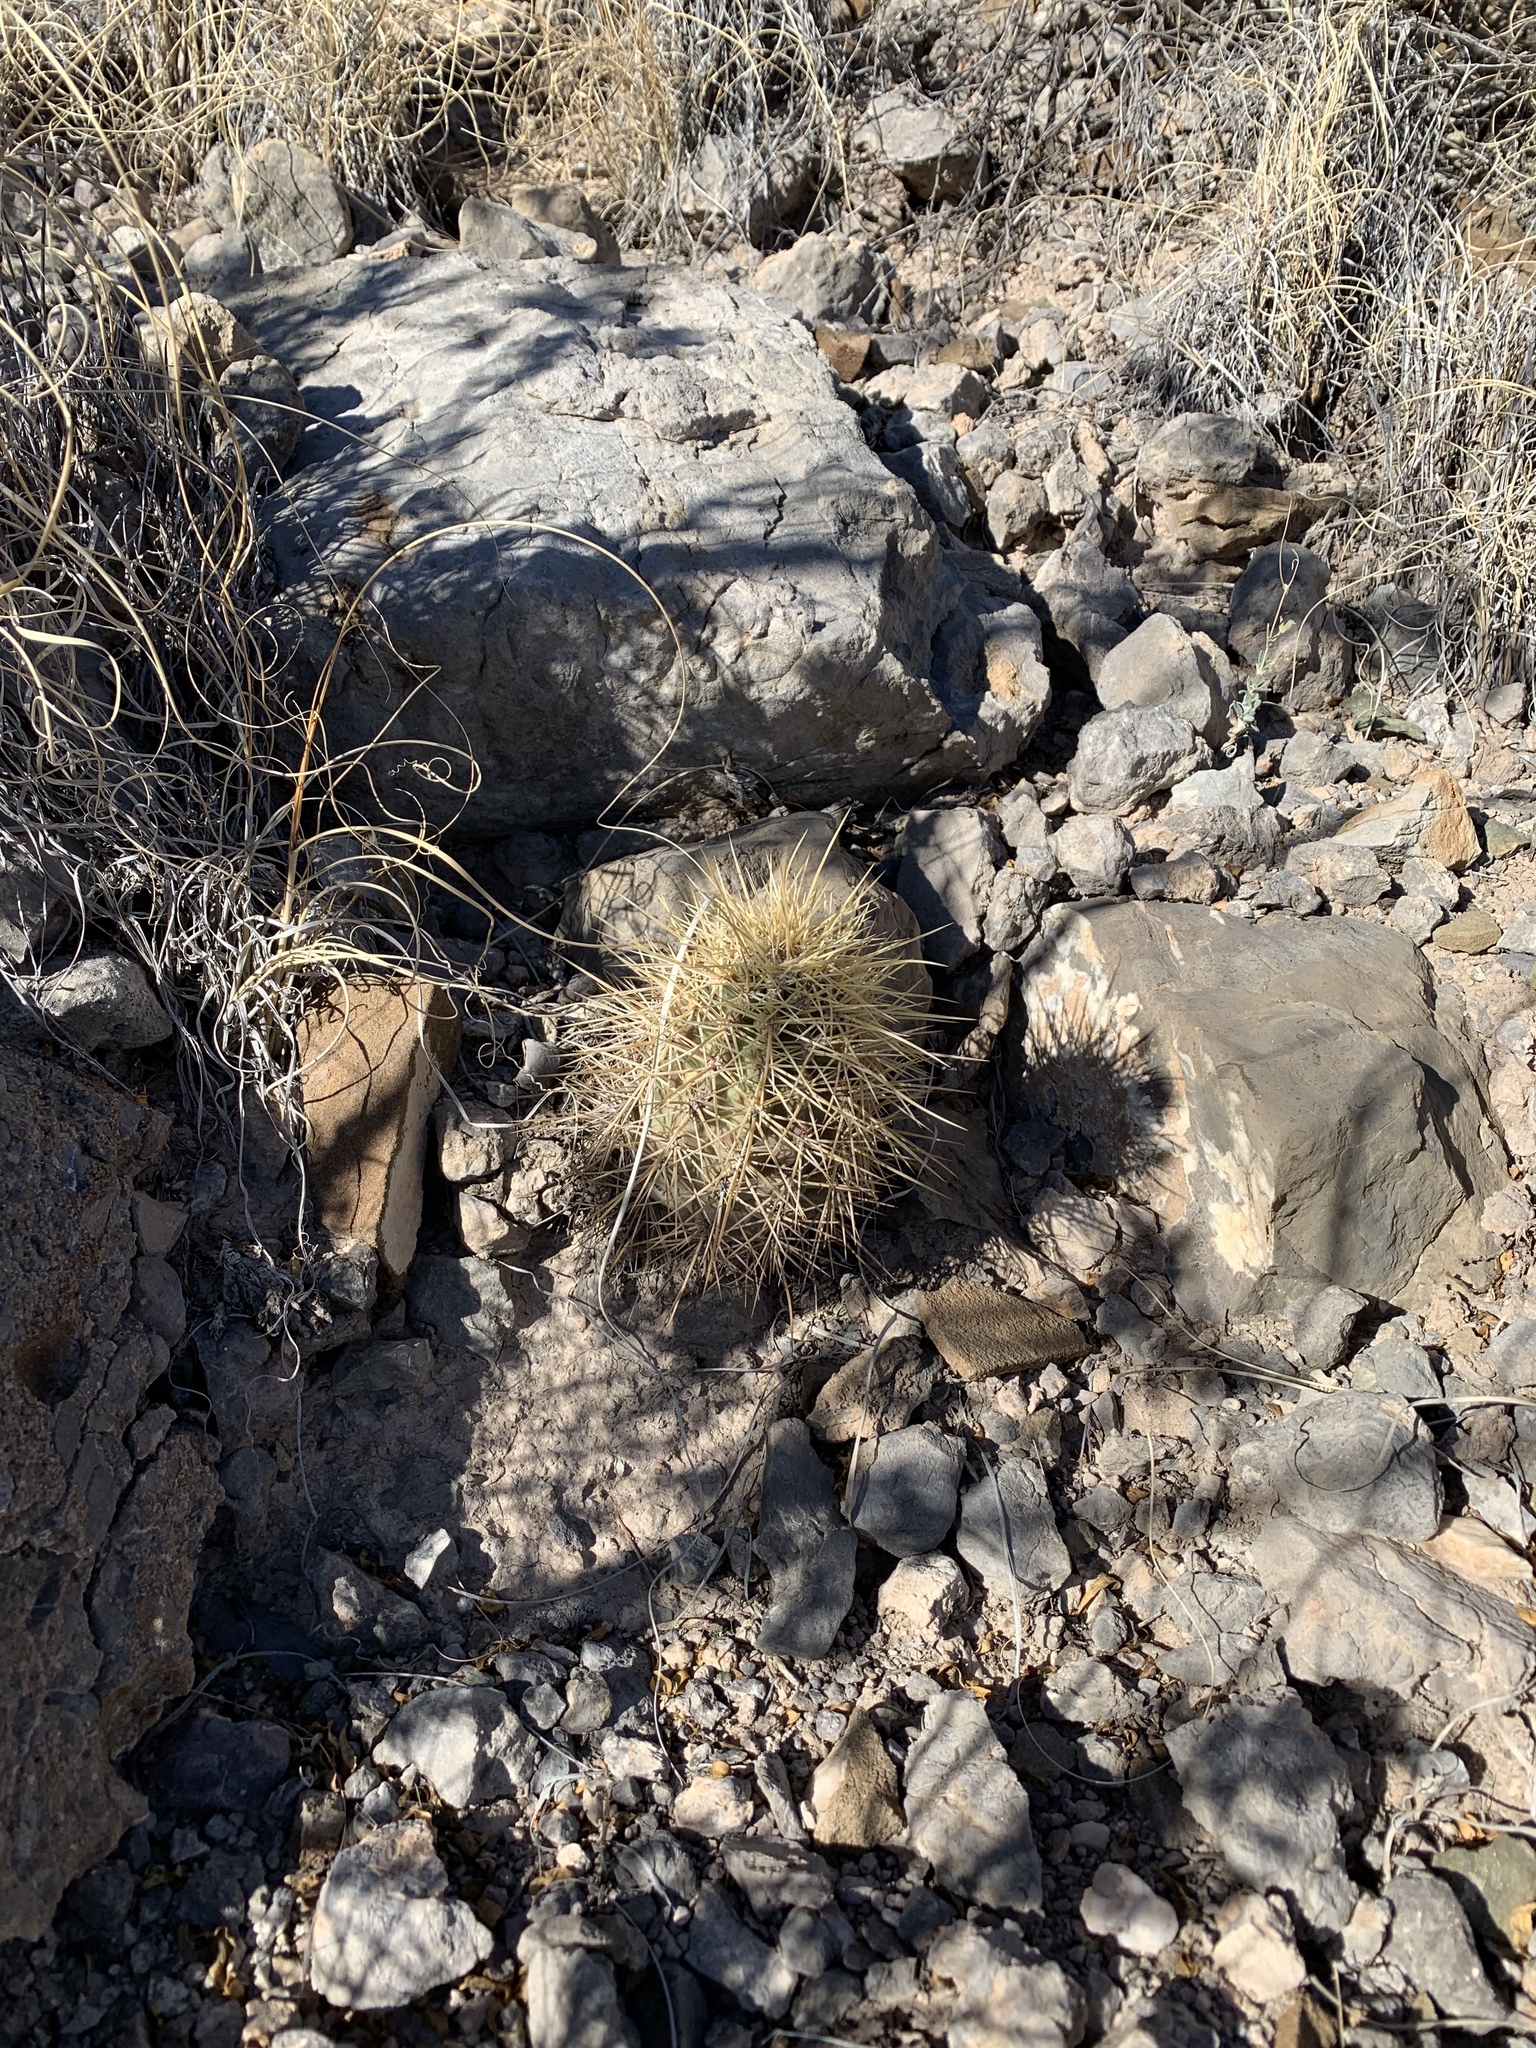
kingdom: Plantae
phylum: Tracheophyta
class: Magnoliopsida
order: Caryophyllales
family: Cactaceae
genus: Echinocereus
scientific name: Echinocereus coccineus
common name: Scarlet hedgehog cactus
